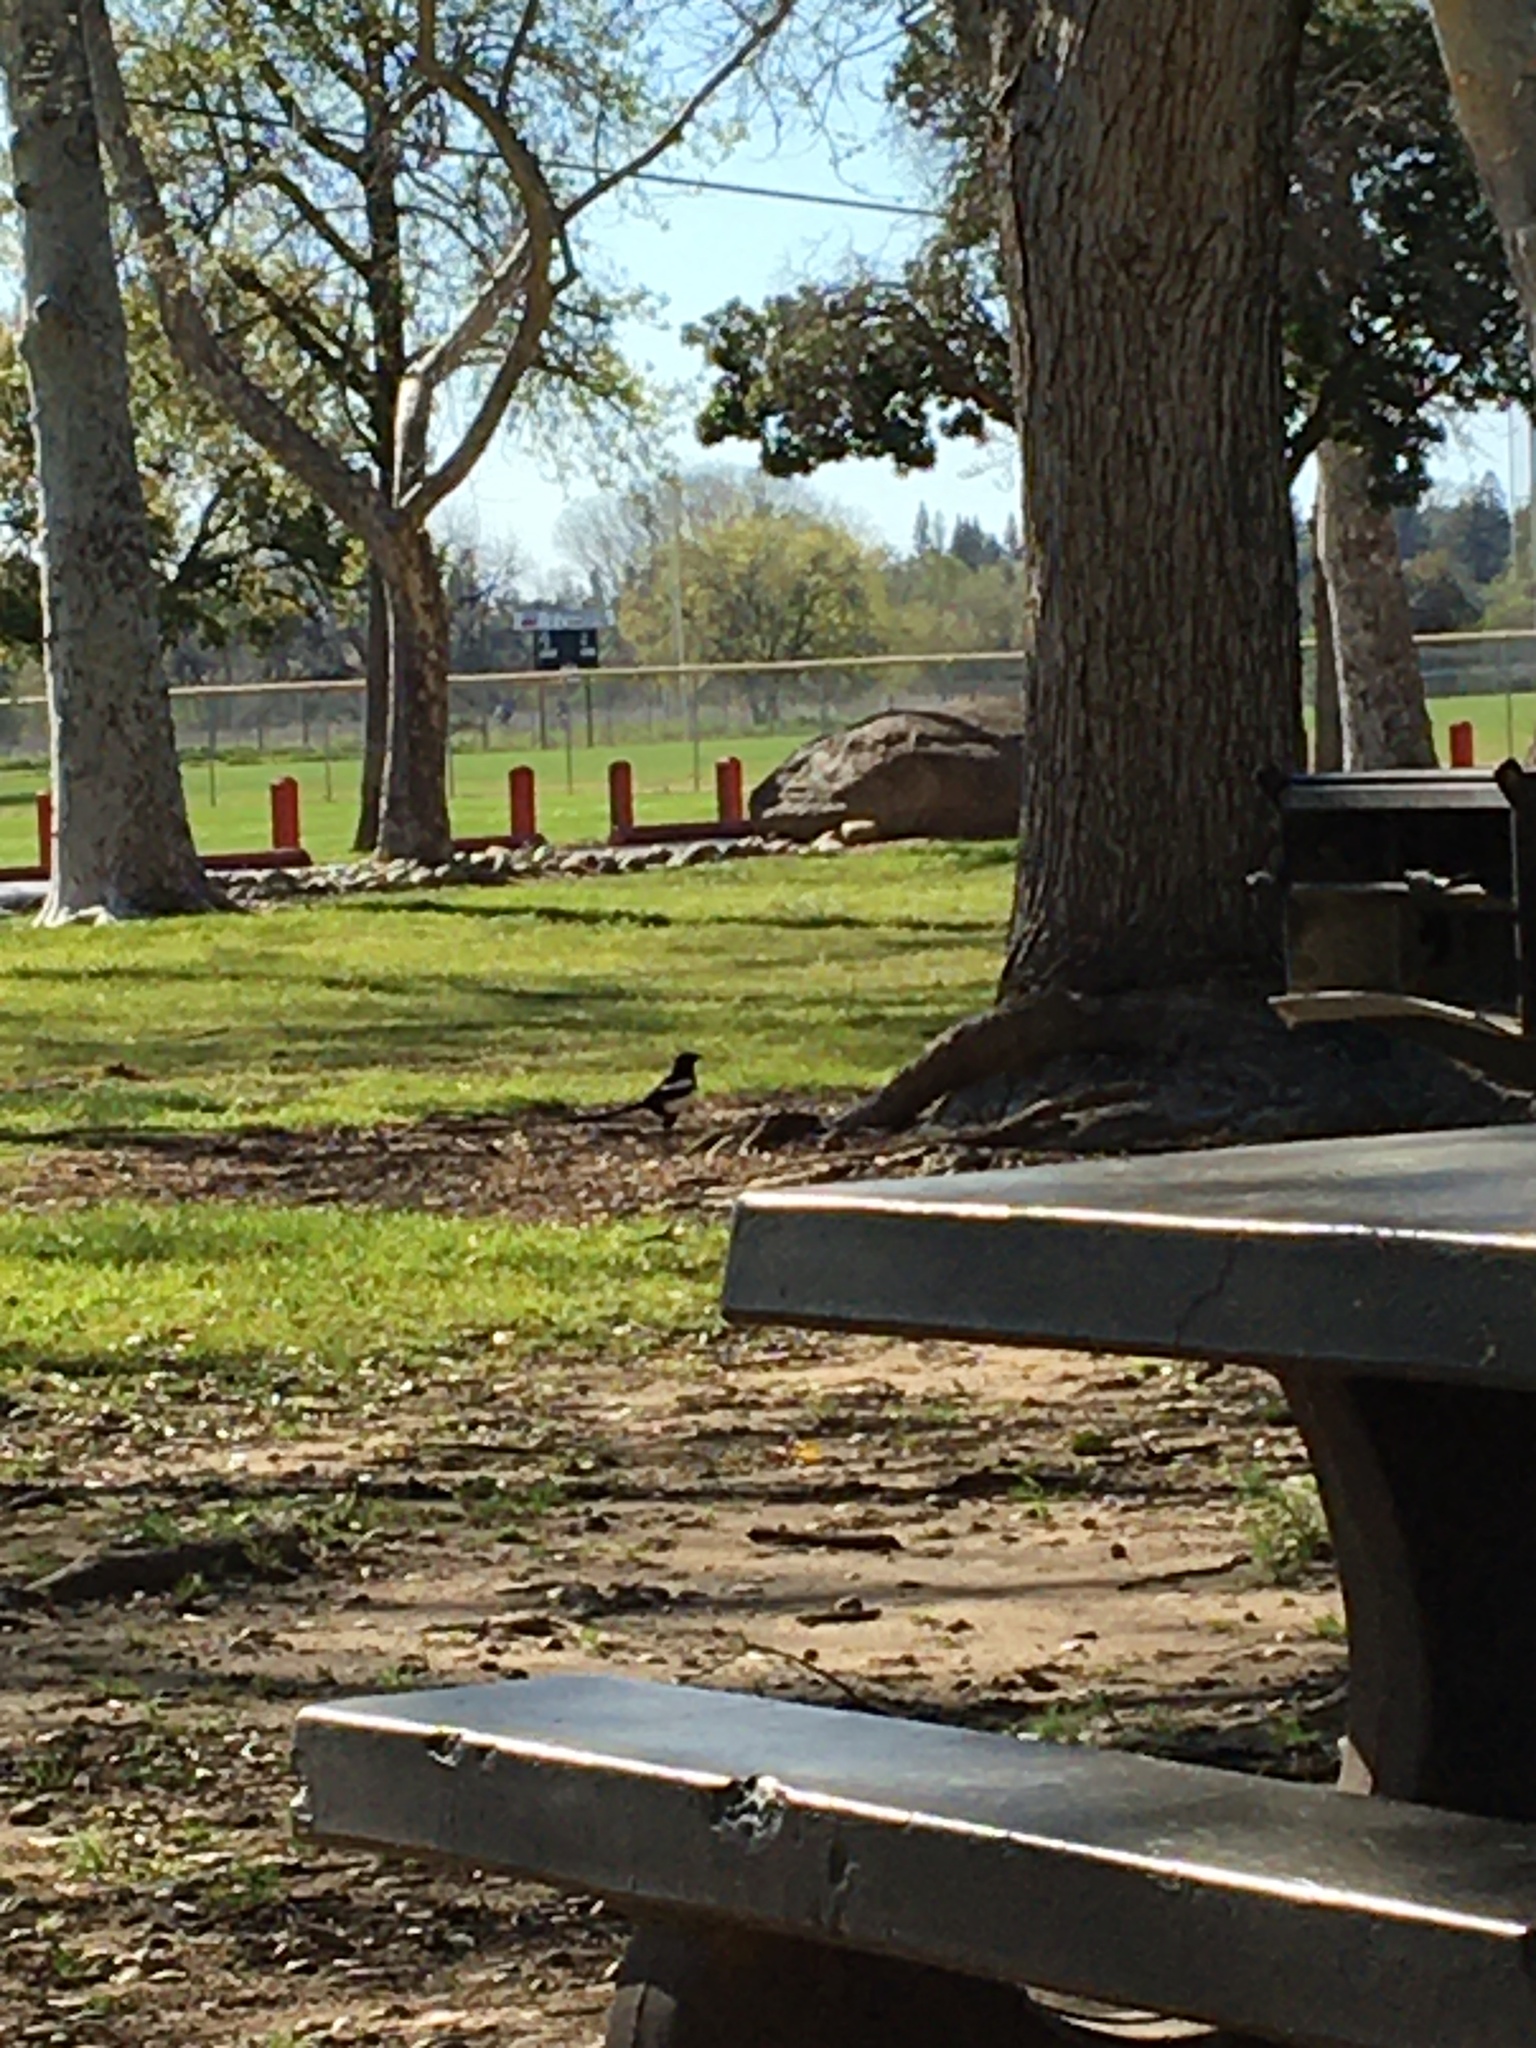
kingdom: Animalia
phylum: Chordata
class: Aves
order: Passeriformes
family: Corvidae
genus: Pica
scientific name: Pica nuttalli
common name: Yellow-billed magpie
